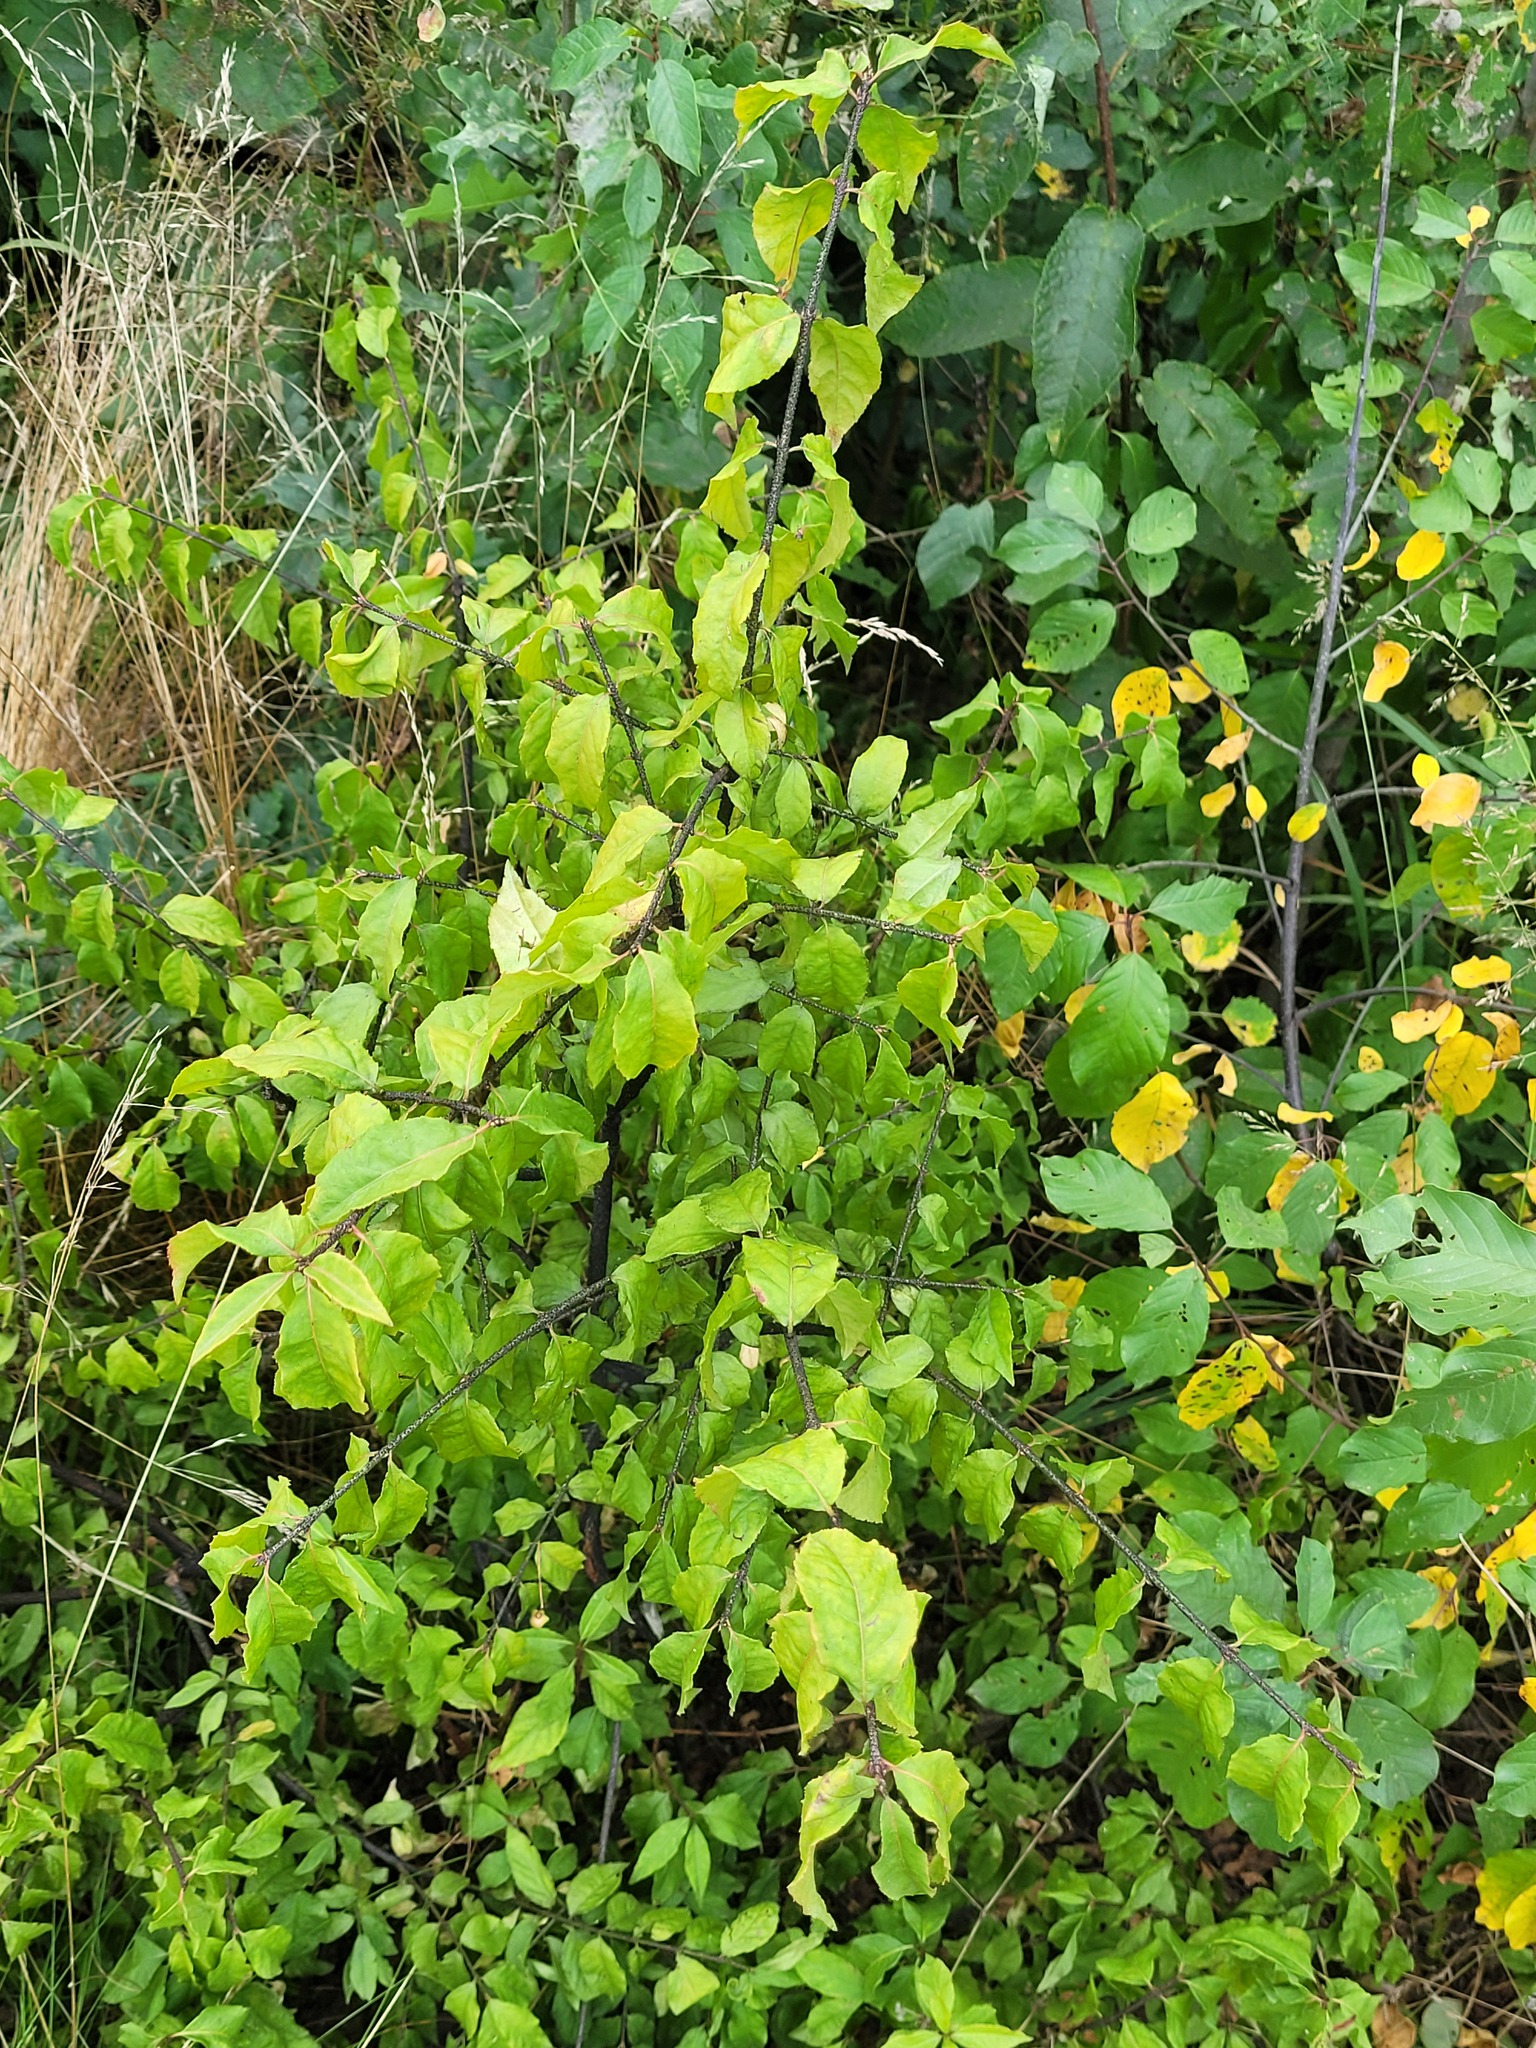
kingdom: Plantae
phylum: Tracheophyta
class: Magnoliopsida
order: Celastrales
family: Celastraceae
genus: Euonymus
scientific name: Euonymus verrucosus
